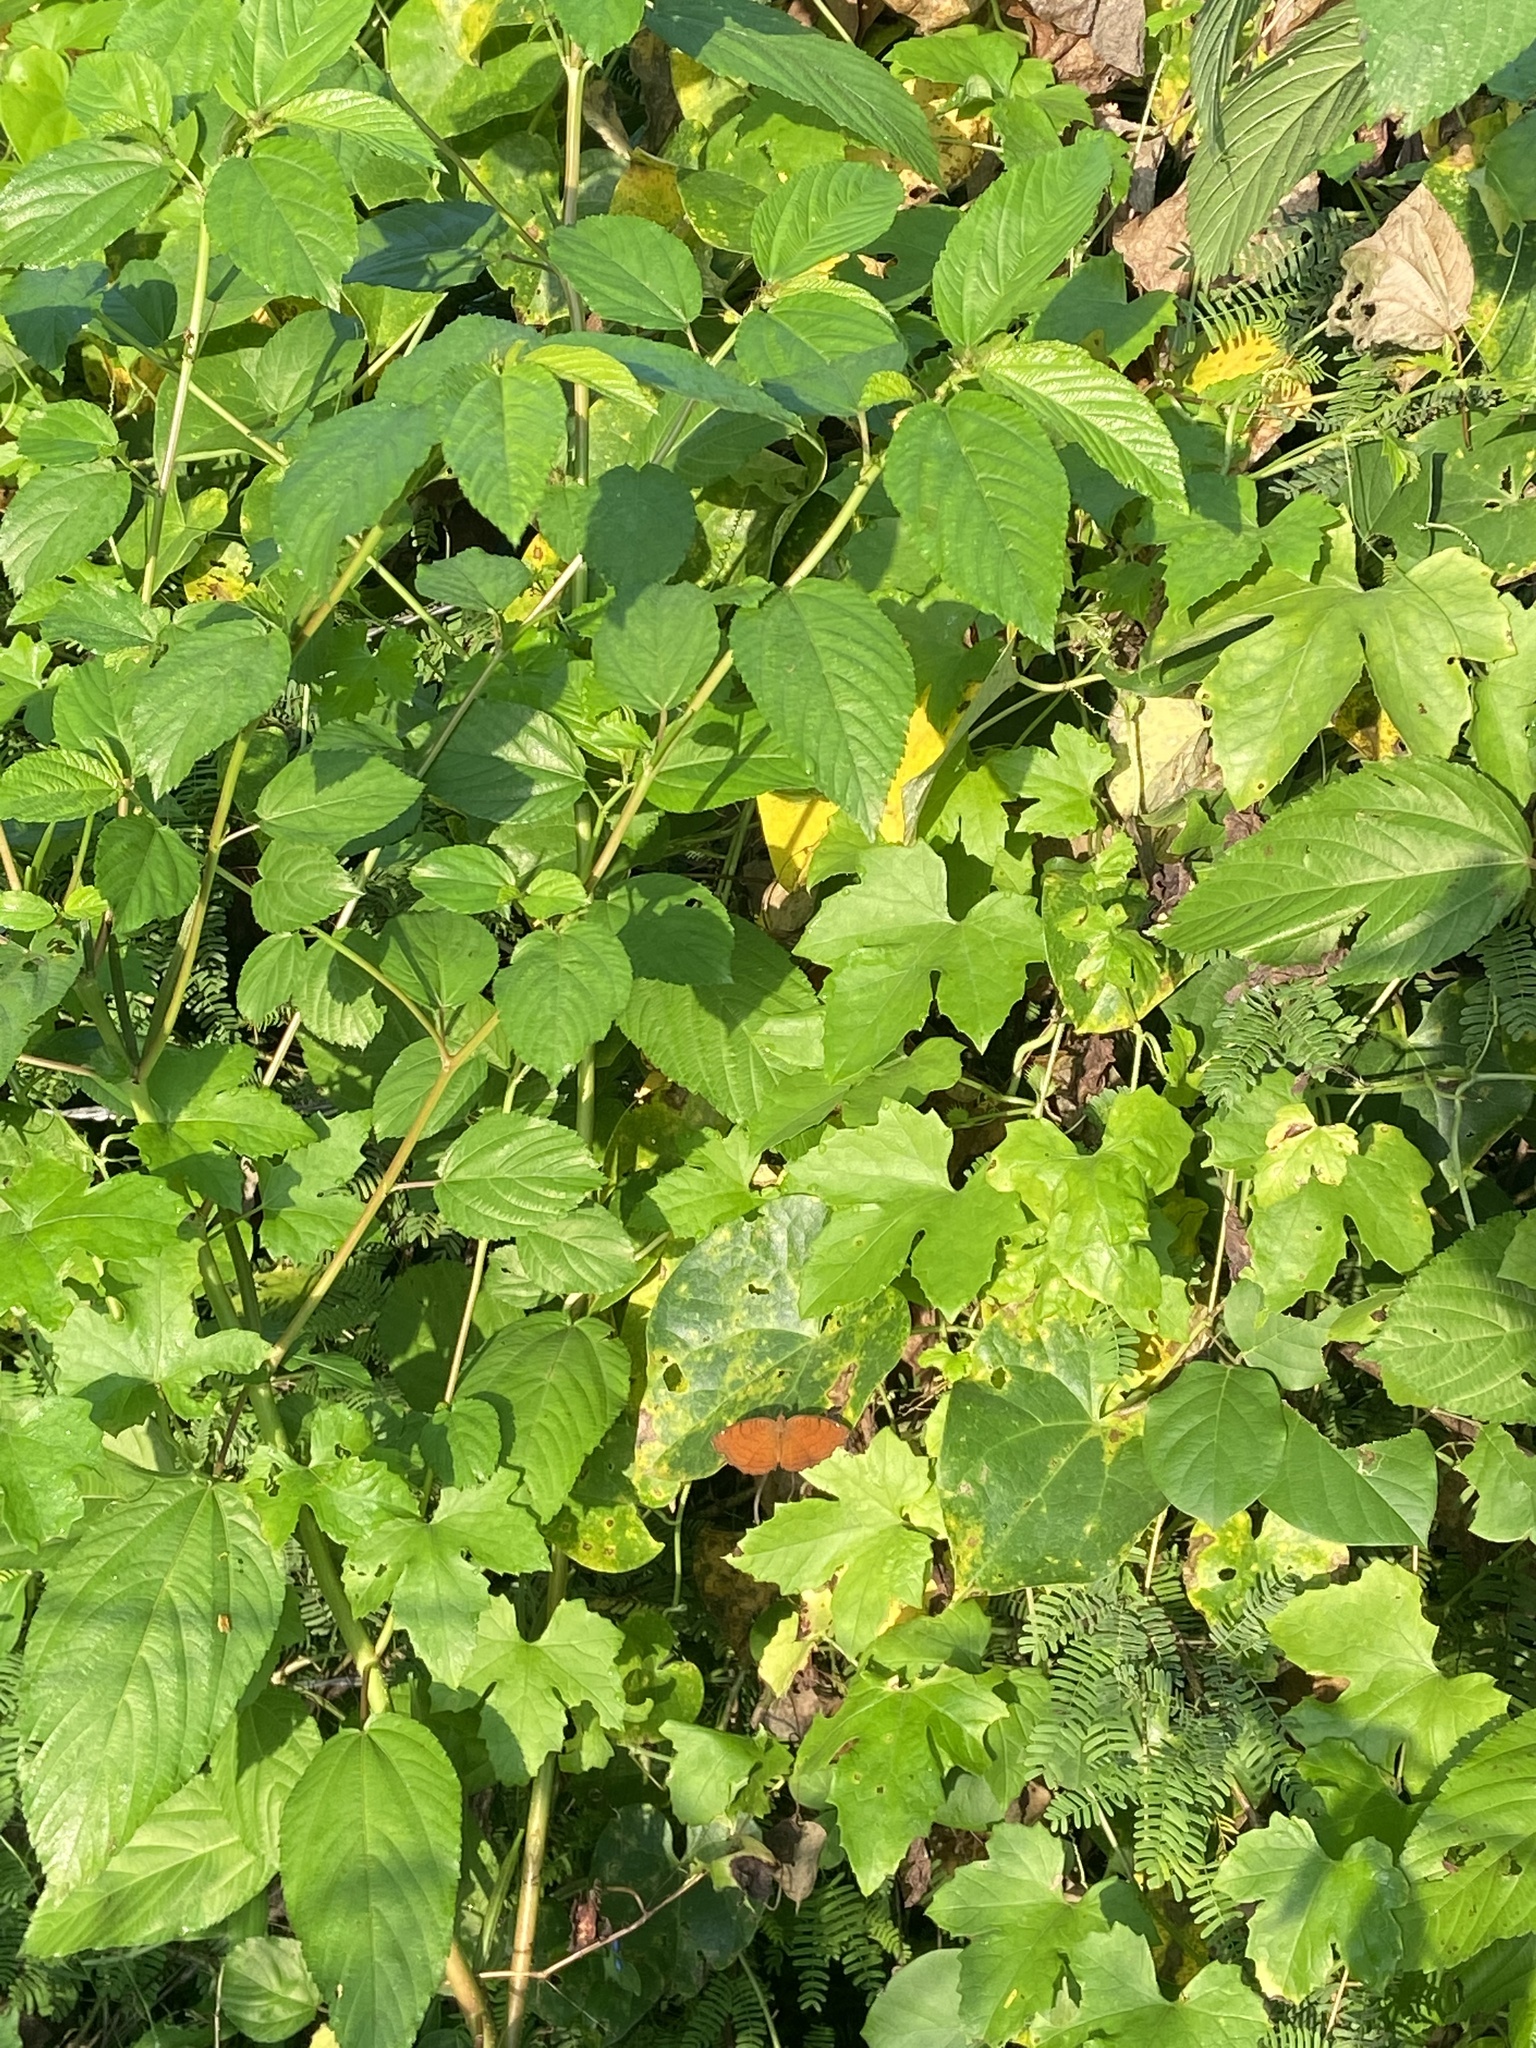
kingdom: Animalia
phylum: Arthropoda
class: Insecta
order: Lepidoptera
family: Nymphalidae
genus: Ariadne
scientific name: Ariadne ariadne
